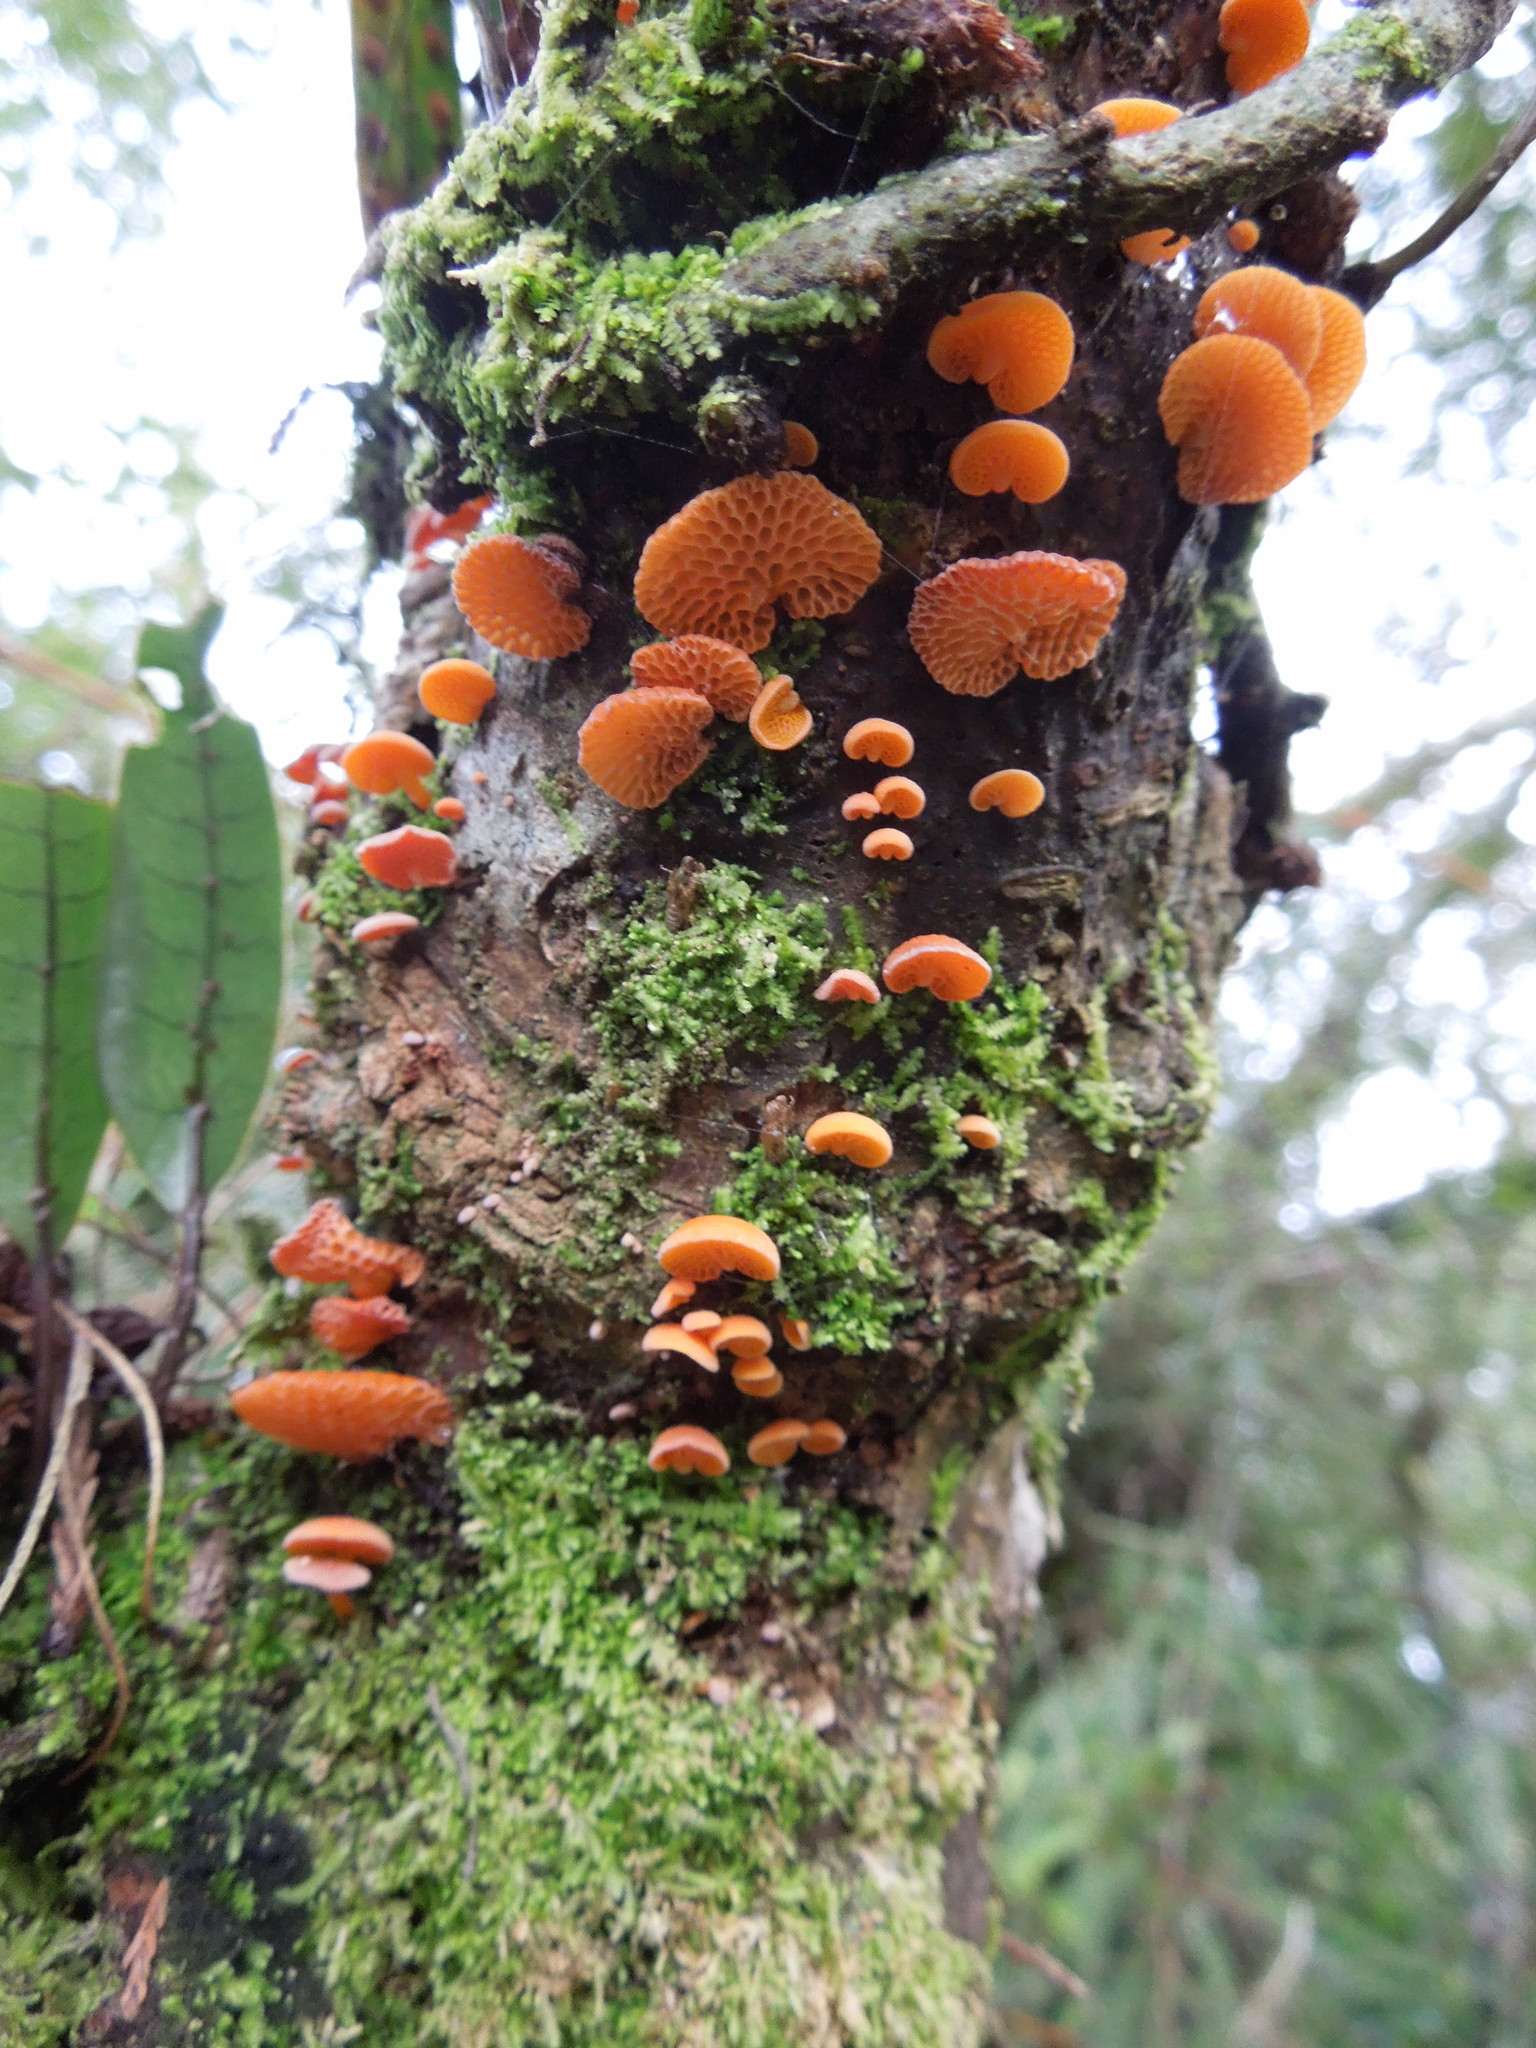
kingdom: Fungi
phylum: Basidiomycota
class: Agaricomycetes
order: Agaricales
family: Mycenaceae
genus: Favolaschia
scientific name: Favolaschia claudopus
